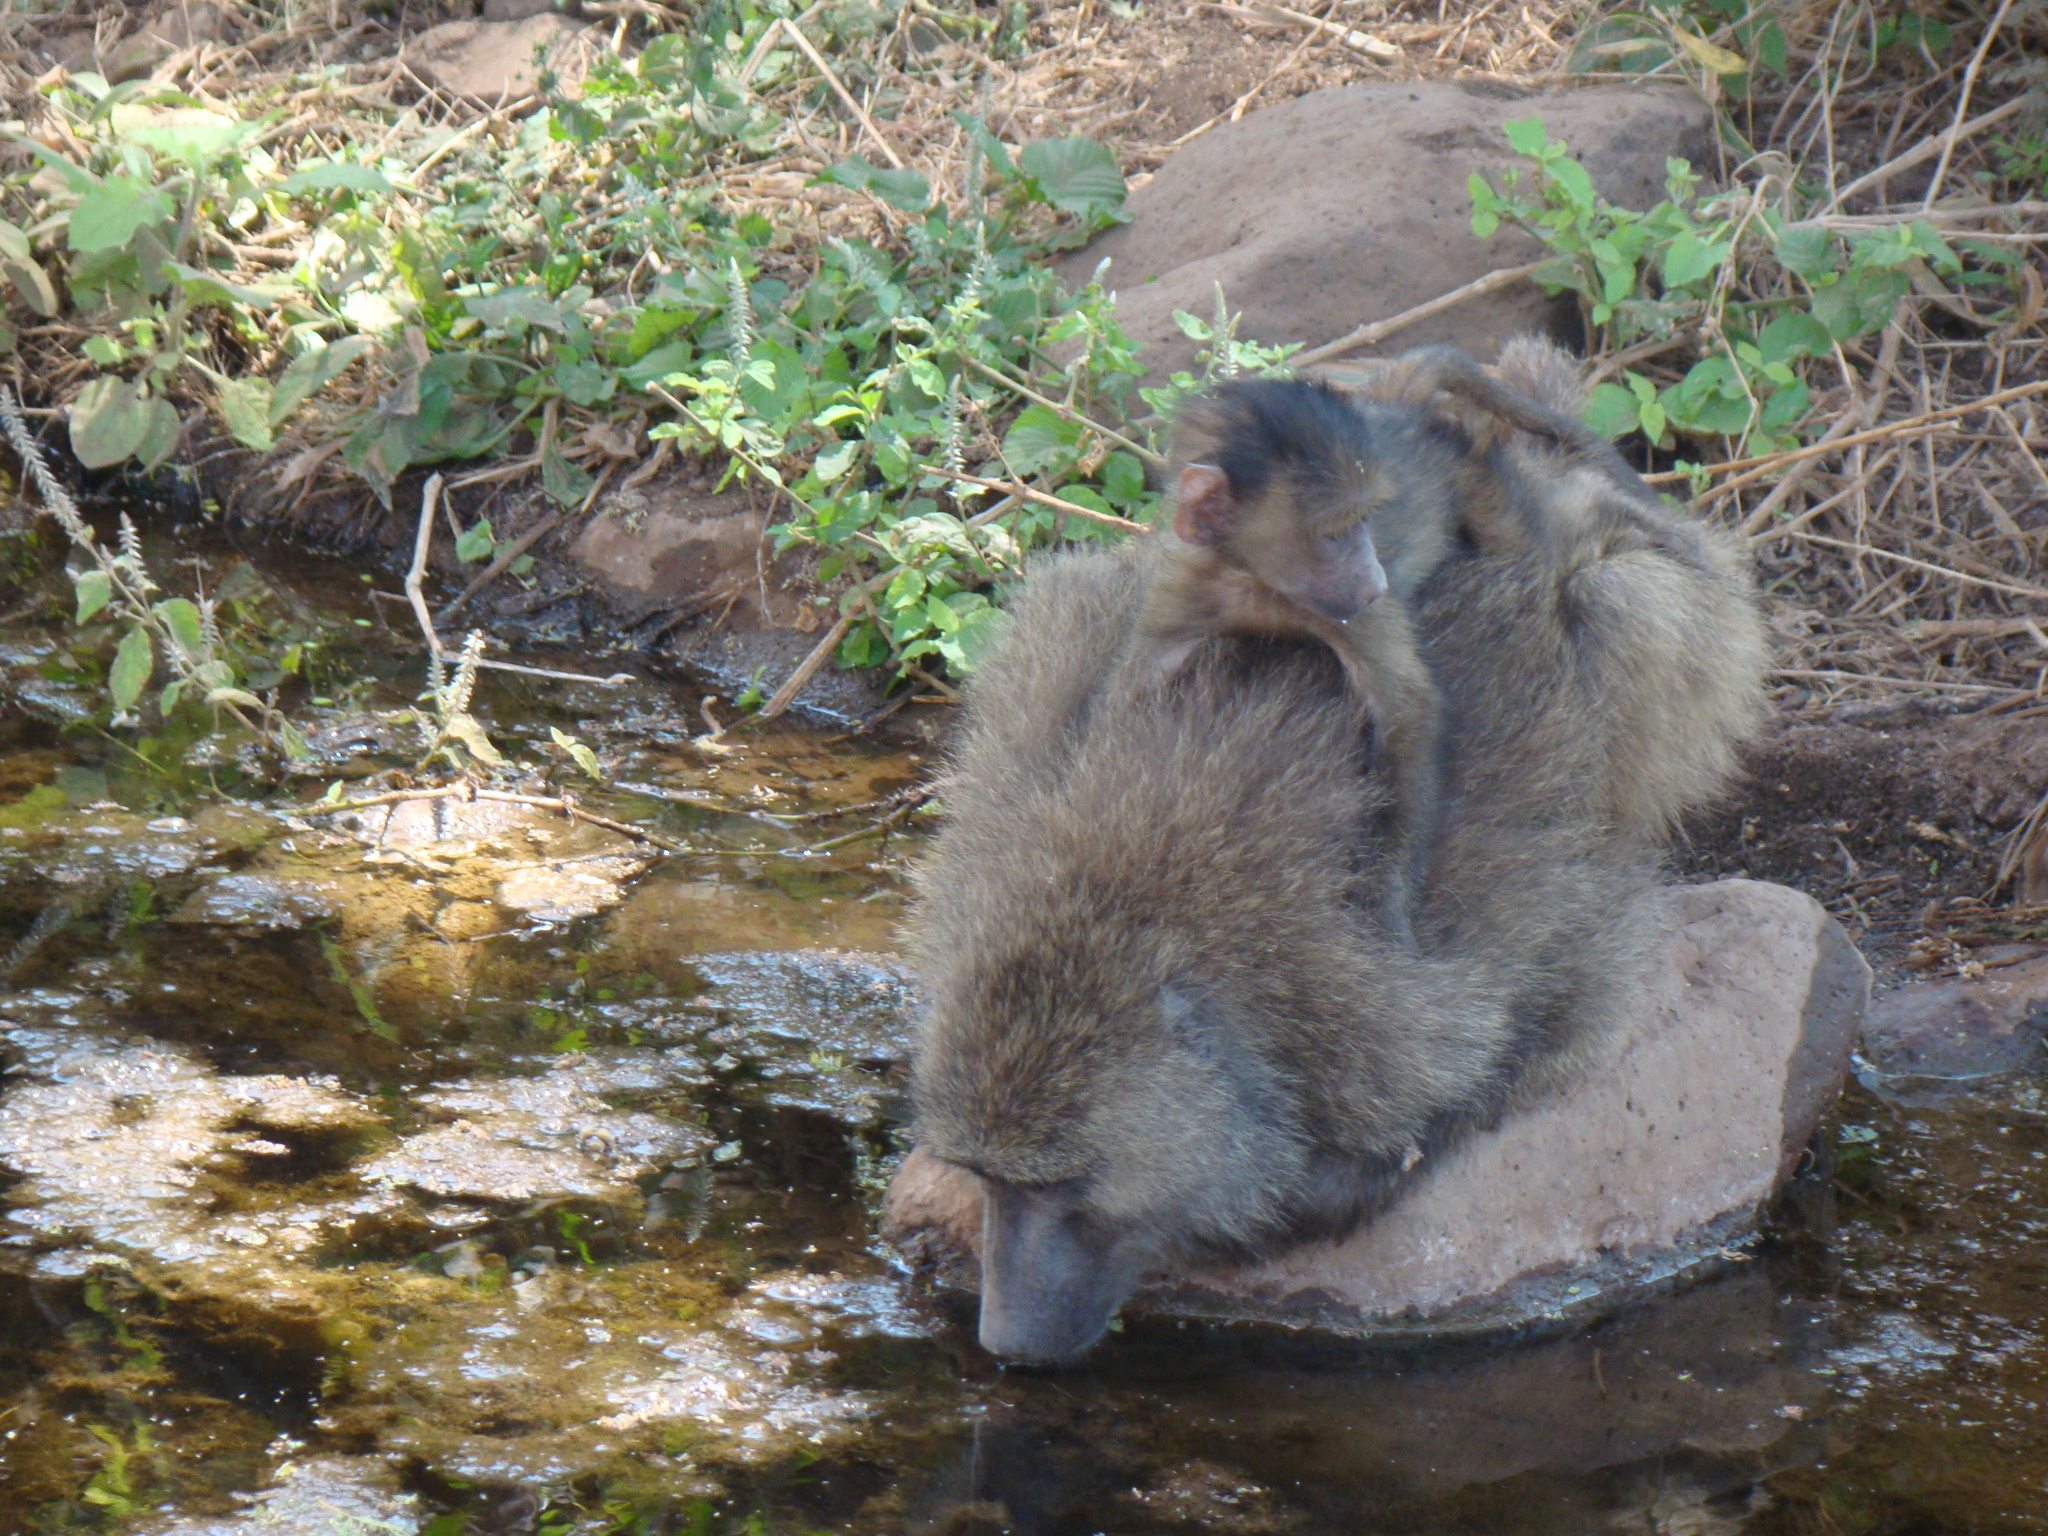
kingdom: Animalia
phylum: Chordata
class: Mammalia
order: Primates
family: Cercopithecidae
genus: Papio
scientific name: Papio anubis
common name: Olive baboon
